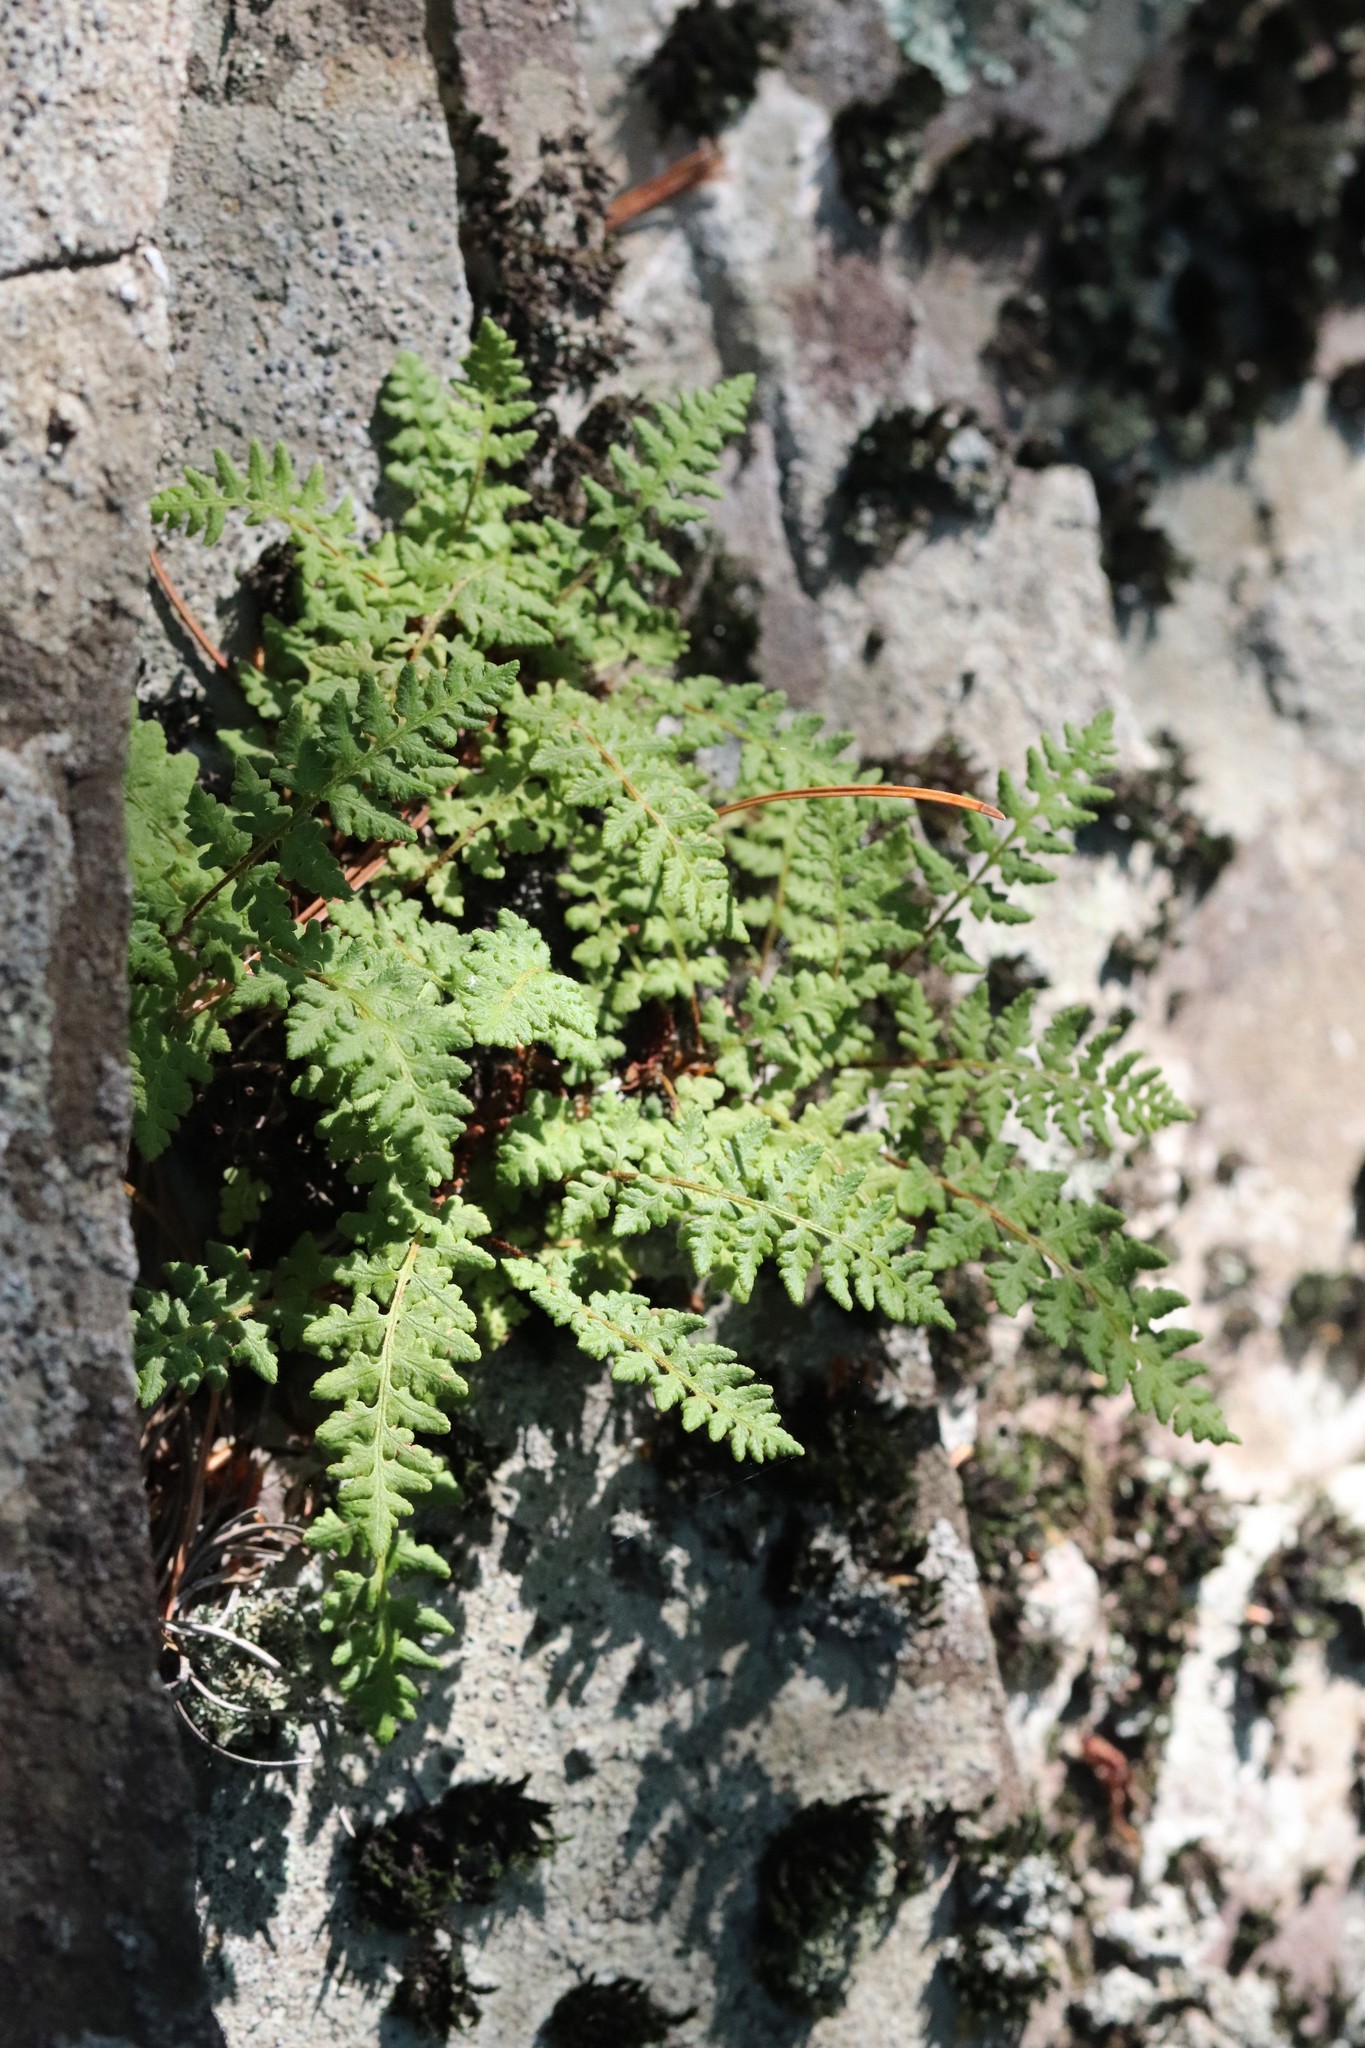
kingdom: Plantae
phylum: Tracheophyta
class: Polypodiopsida
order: Polypodiales
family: Woodsiaceae
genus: Woodsia
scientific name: Woodsia ilvensis
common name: Fragrant woodsia
